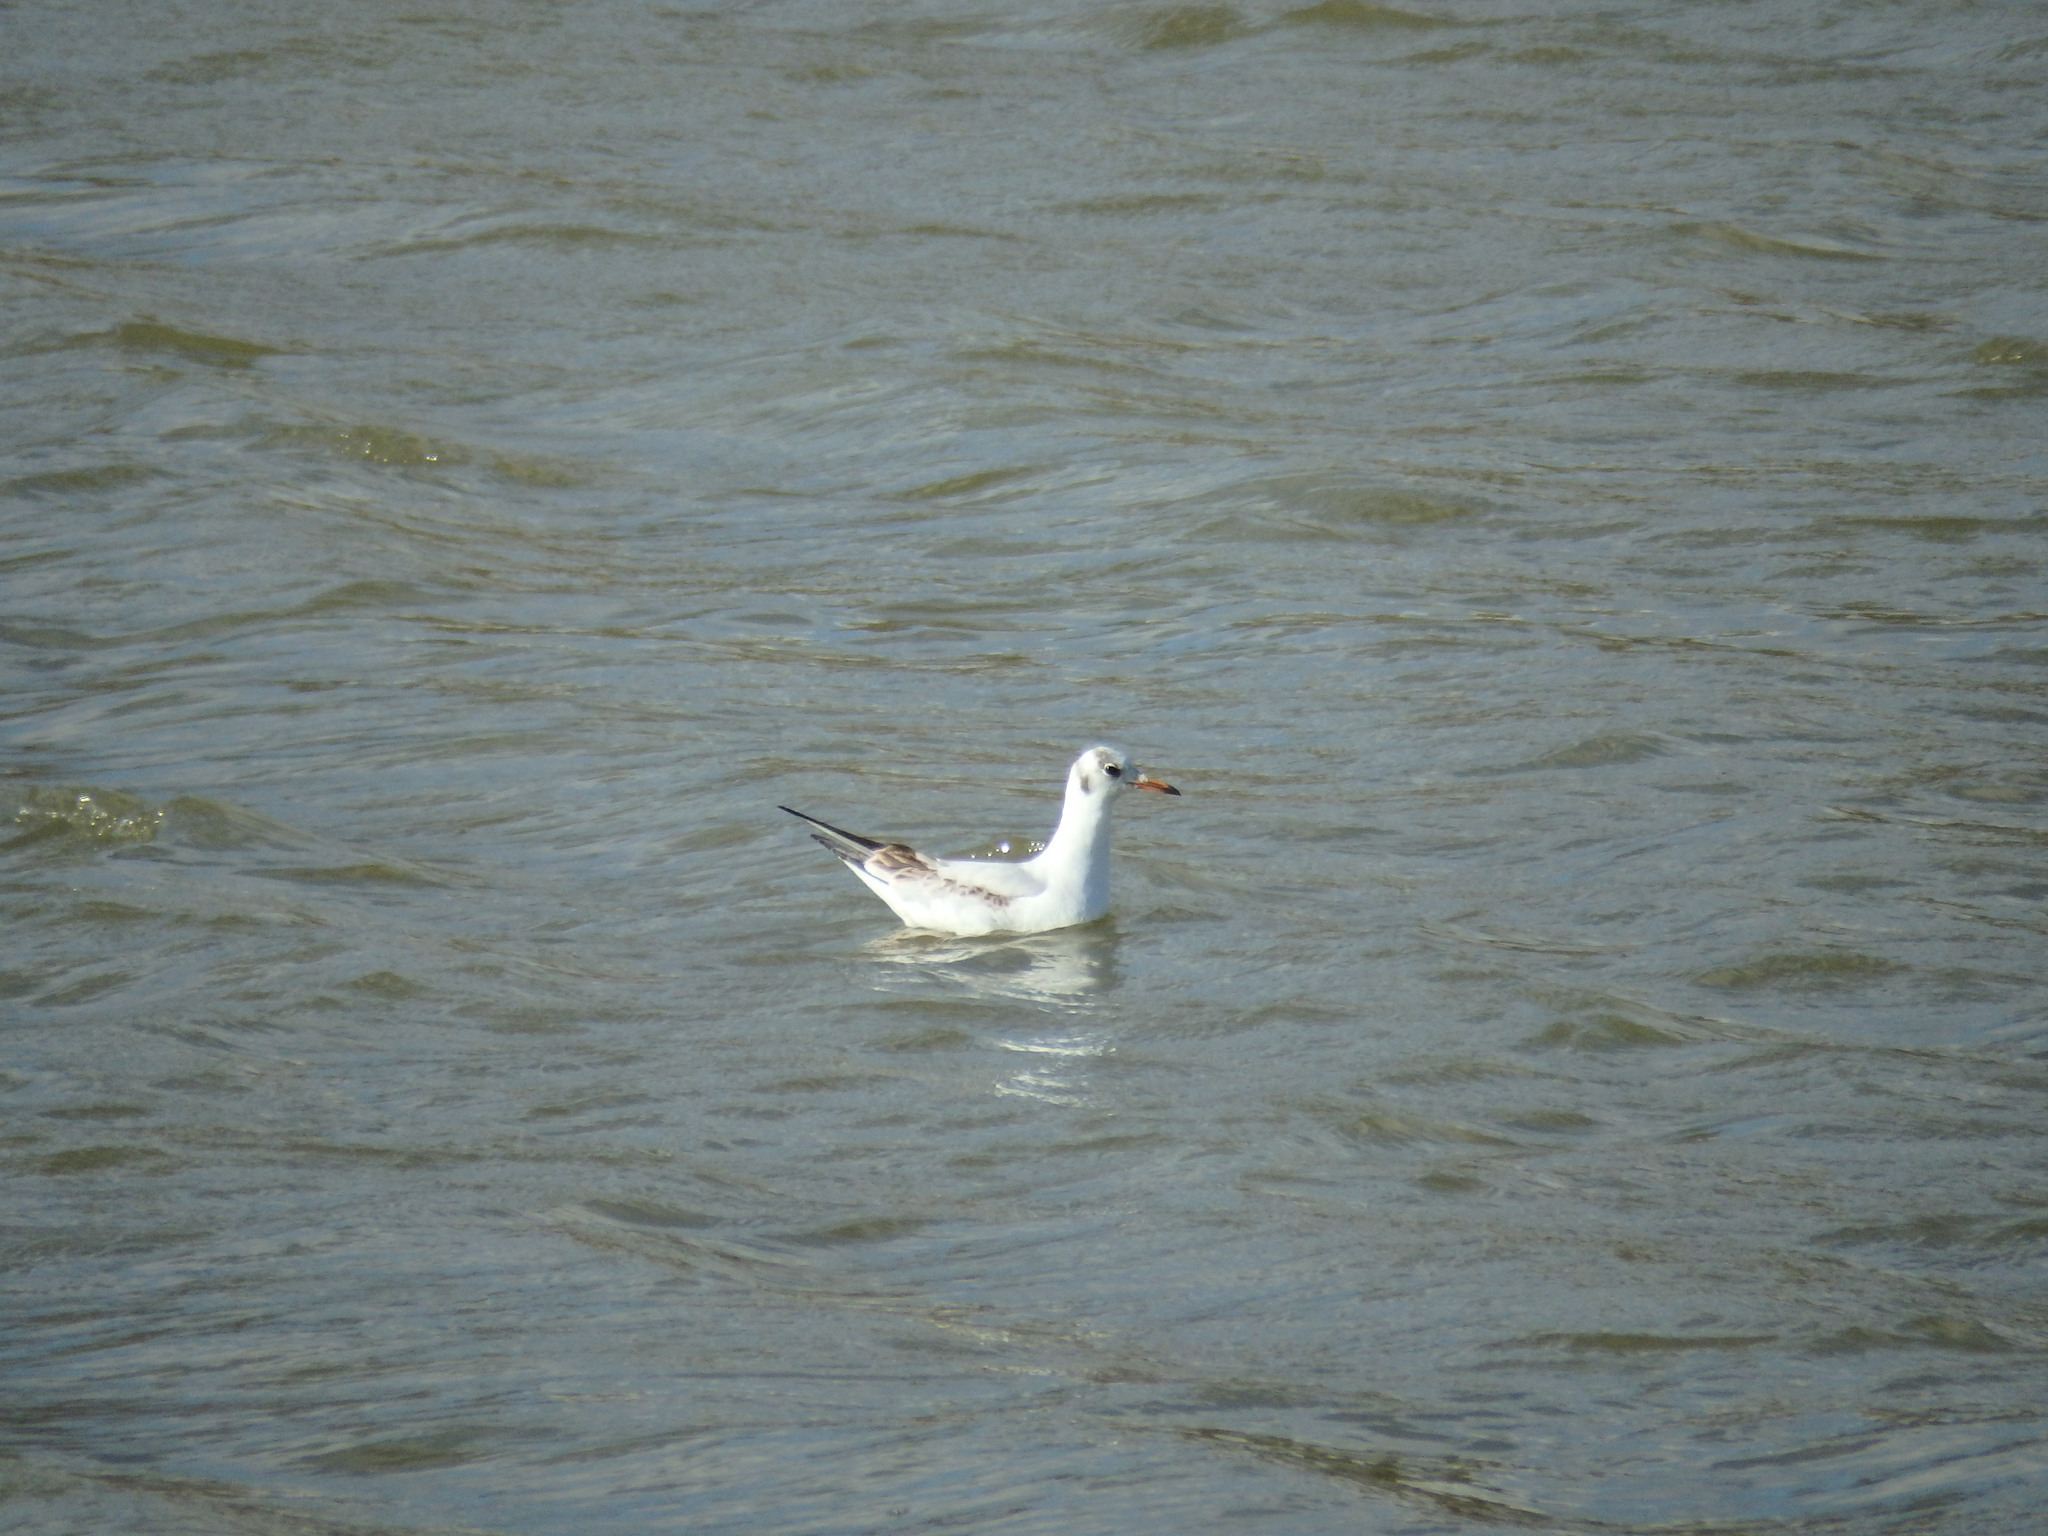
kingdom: Animalia
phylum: Chordata
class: Aves
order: Charadriiformes
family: Laridae
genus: Chroicocephalus
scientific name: Chroicocephalus ridibundus
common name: Black-headed gull
